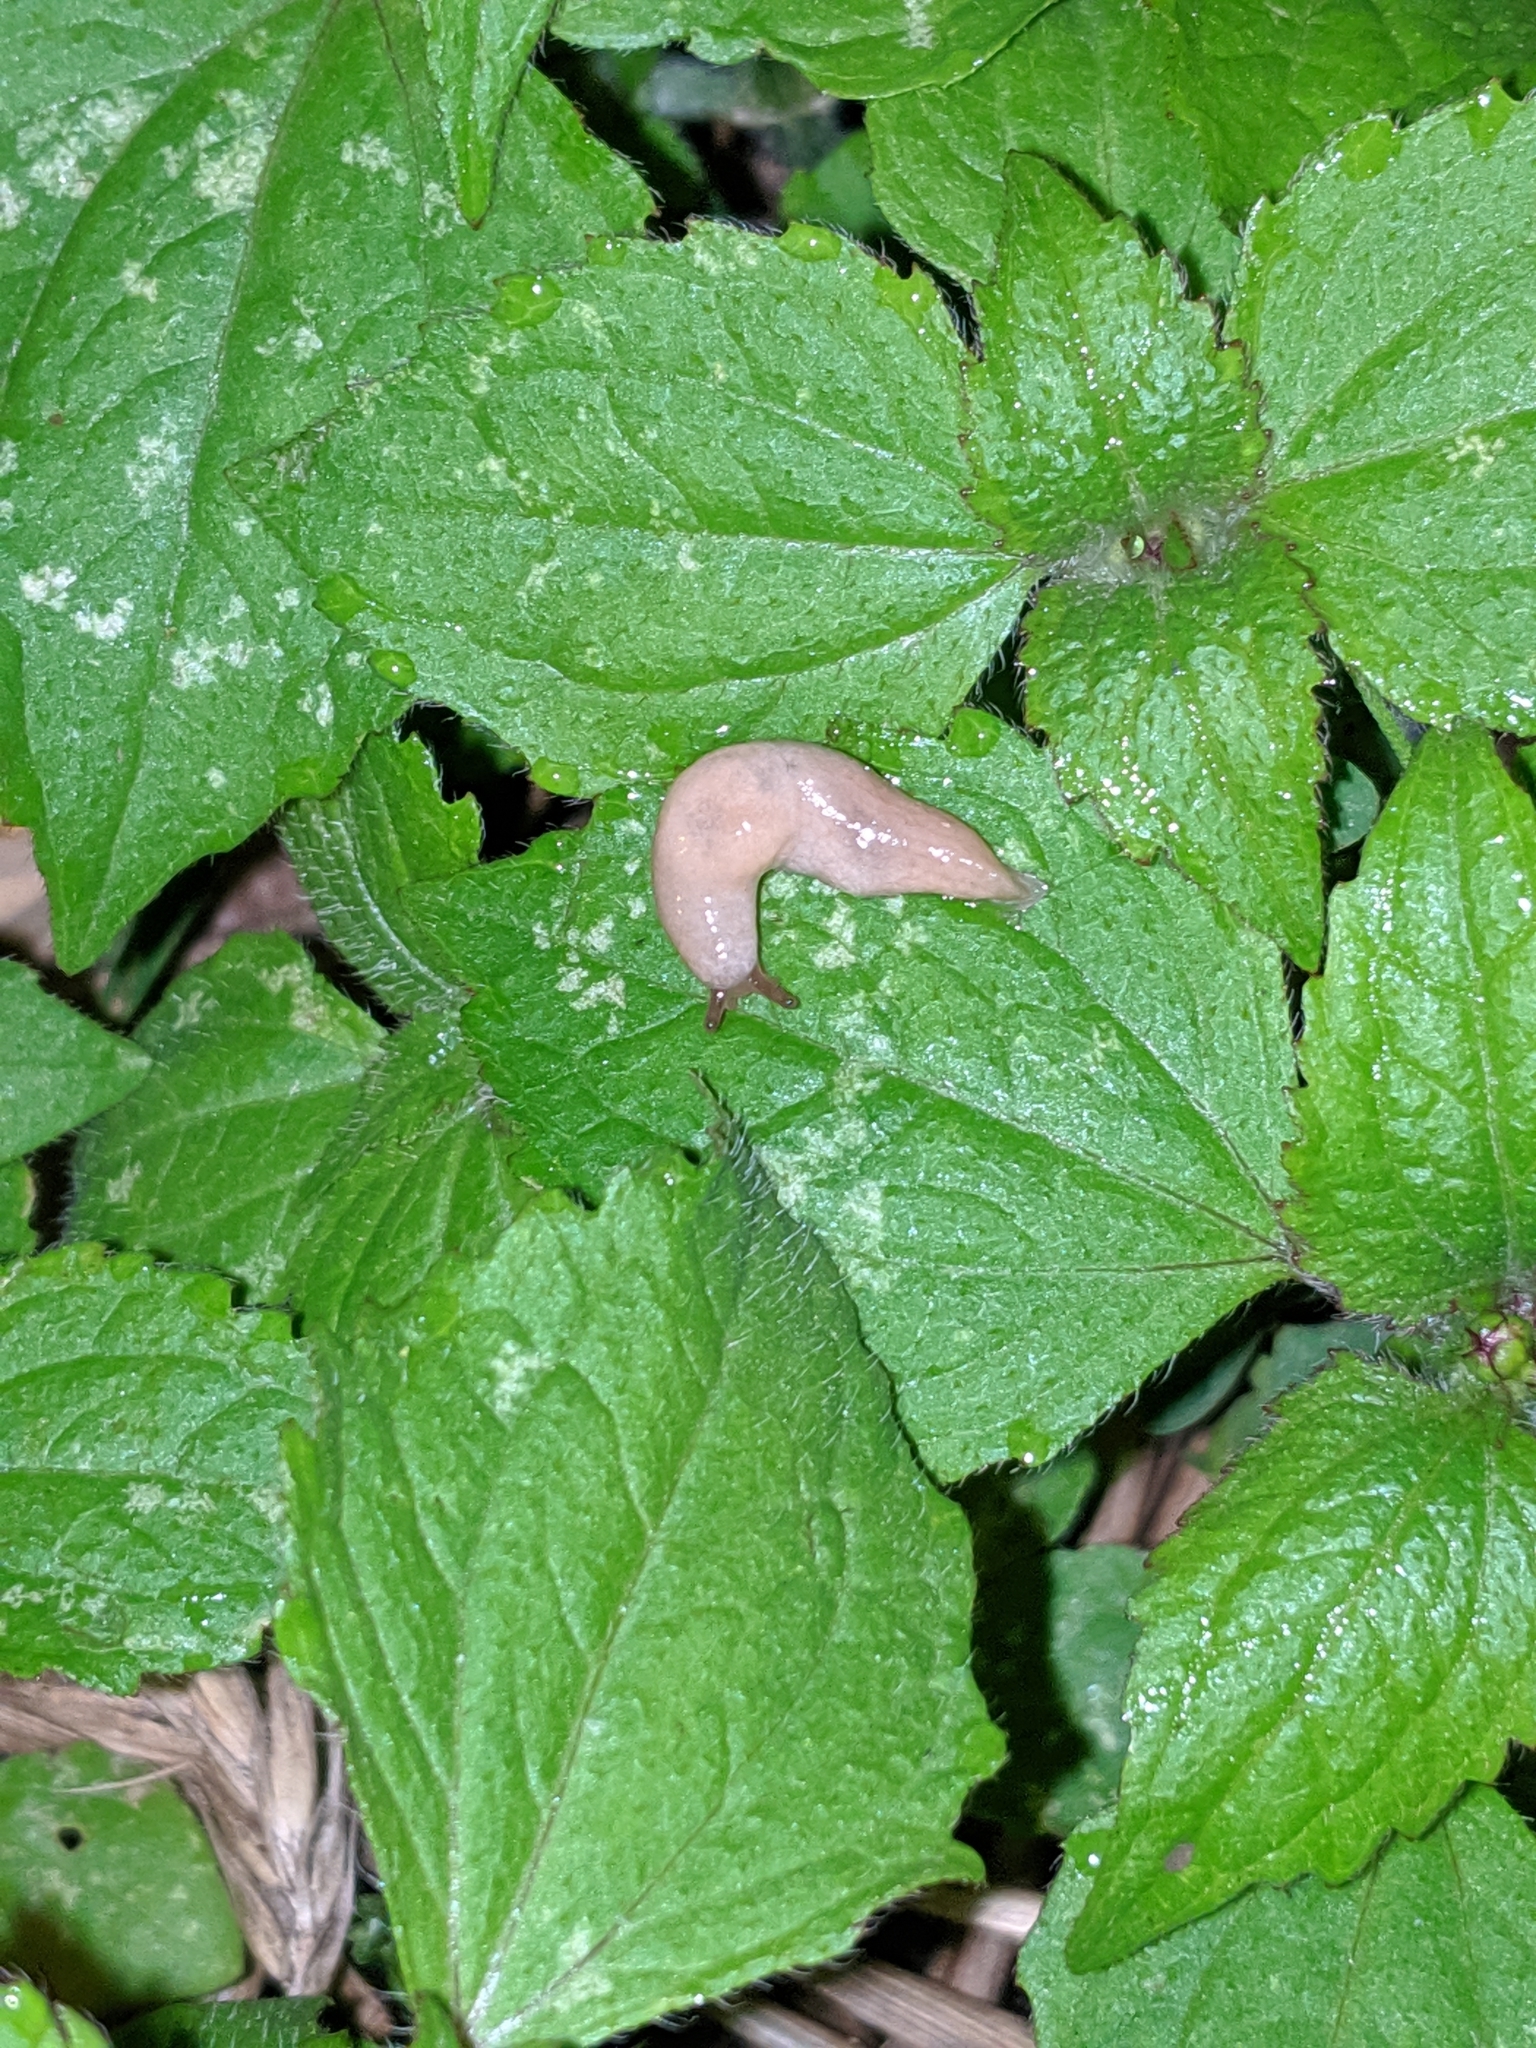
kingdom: Animalia
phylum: Mollusca
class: Gastropoda
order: Stylommatophora
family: Agriolimacidae
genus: Deroceras
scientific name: Deroceras reticulatum
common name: Gray field slug
